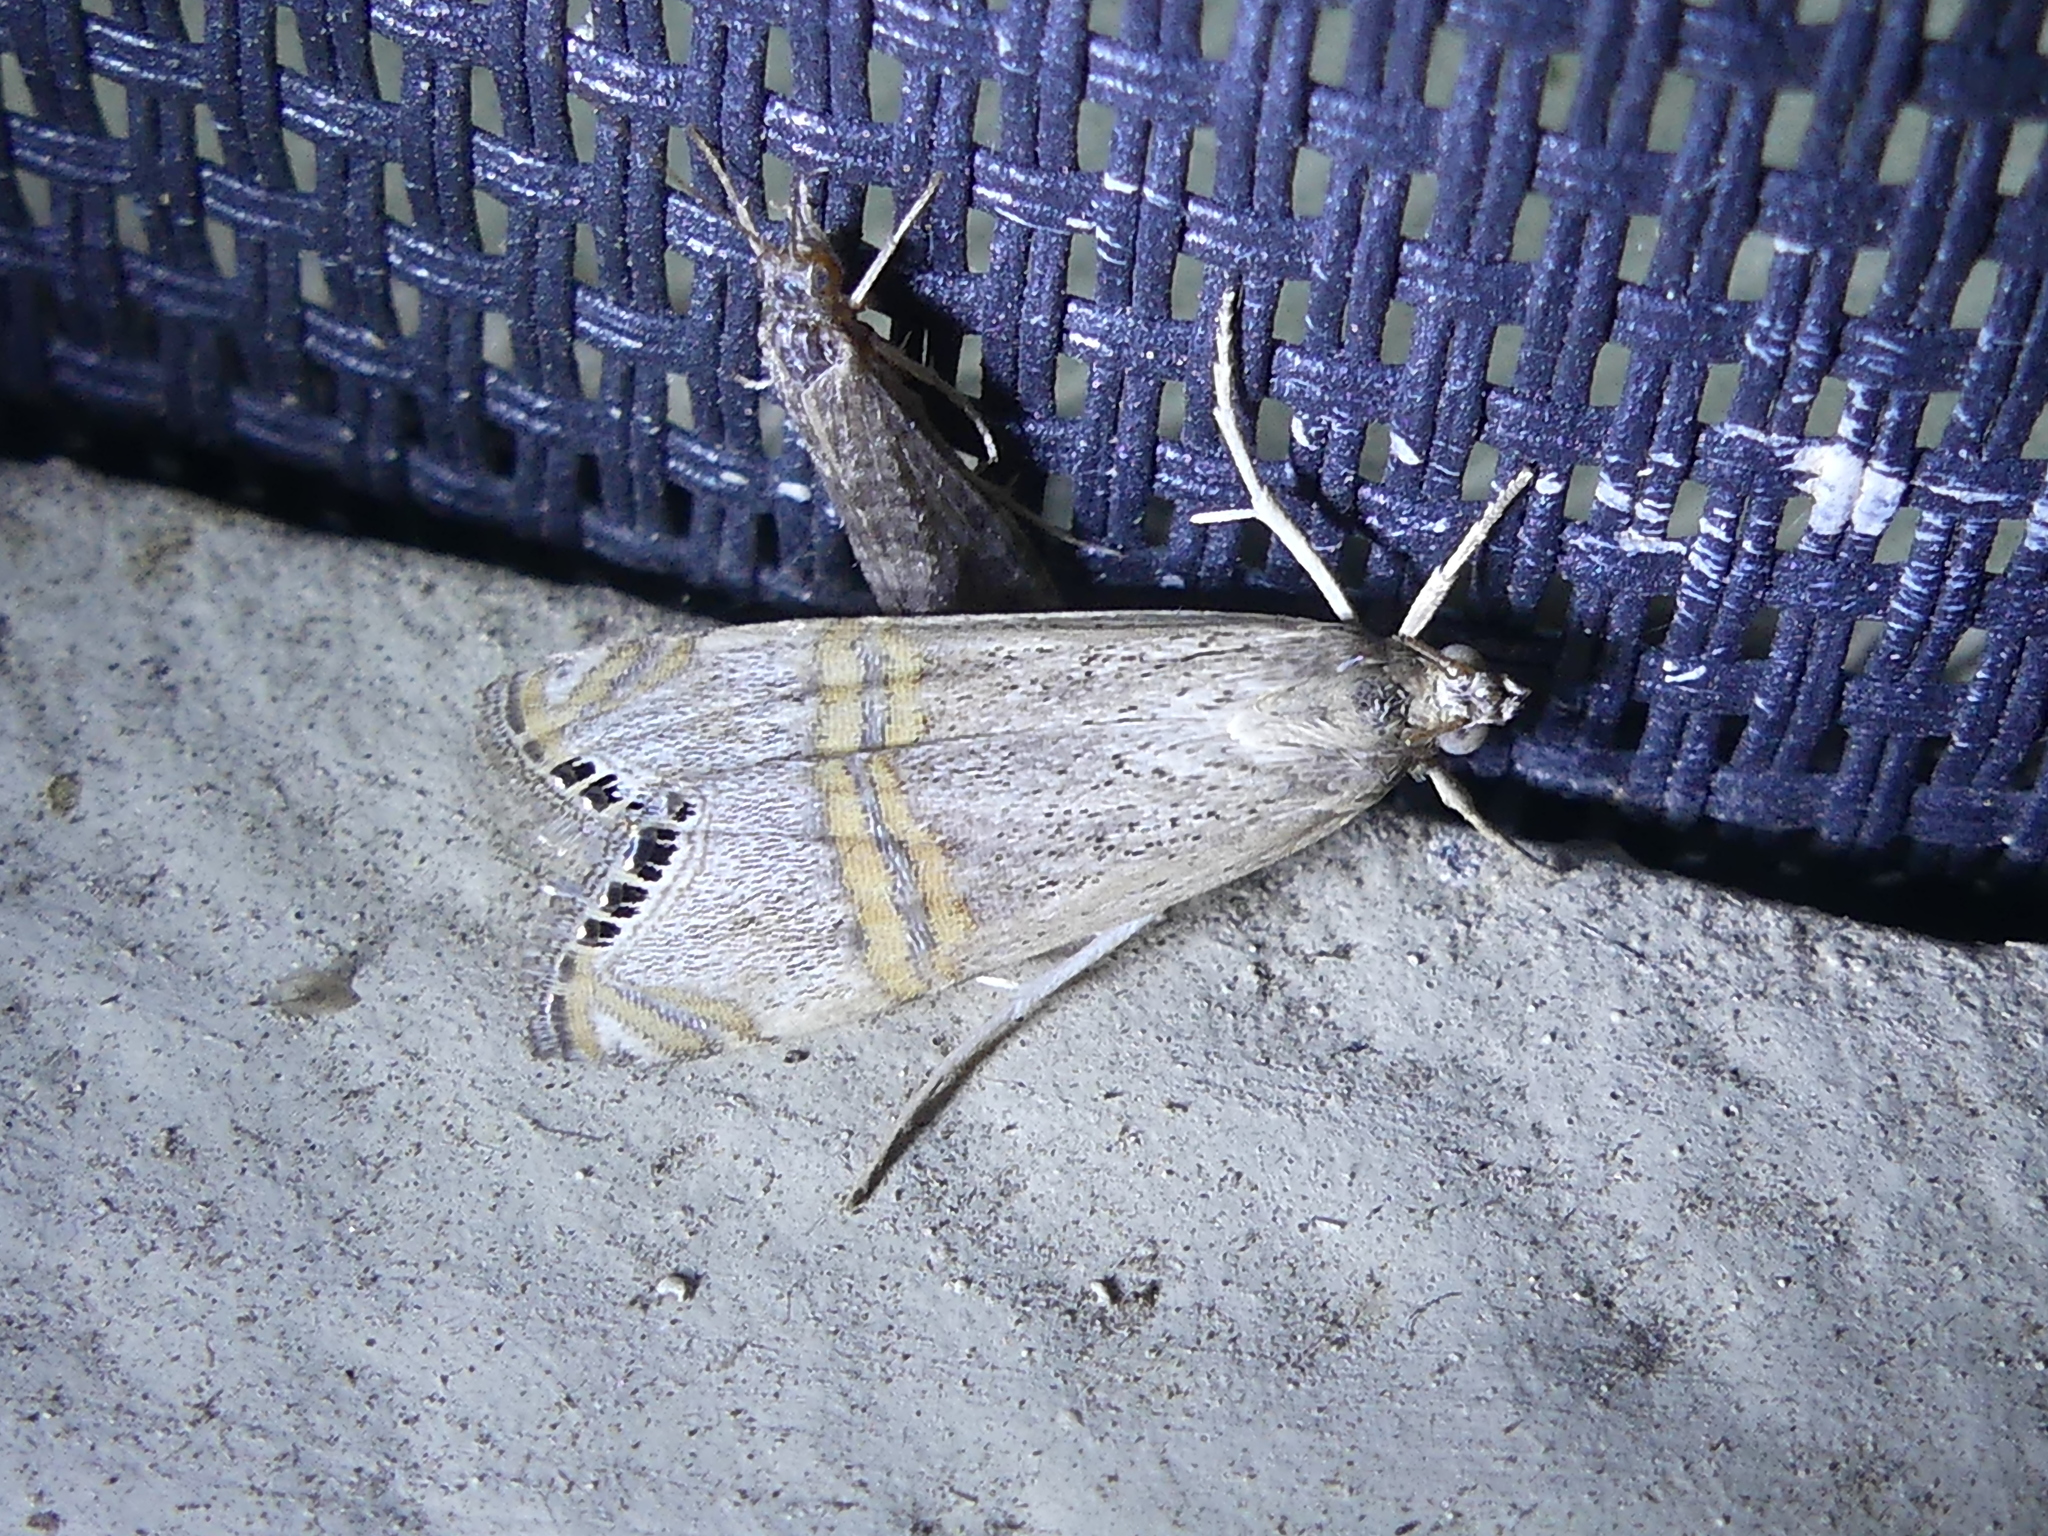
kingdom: Animalia
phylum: Arthropoda
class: Insecta
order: Lepidoptera
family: Crambidae
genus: Euchromius
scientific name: Euchromius ocellea
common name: Necklace veneer moth
